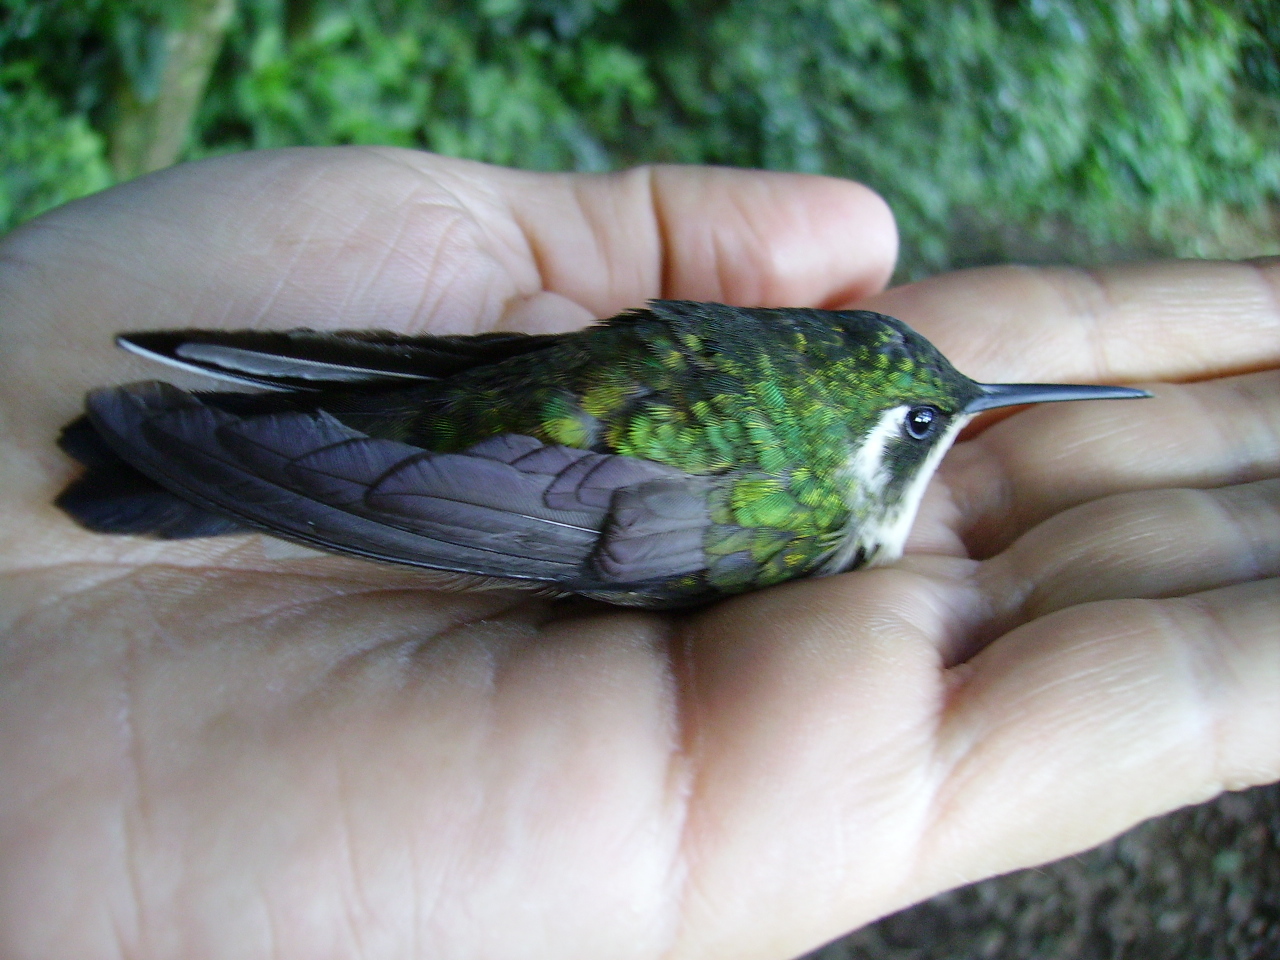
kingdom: Animalia
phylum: Chordata
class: Aves
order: Apodiformes
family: Trochilidae
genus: Lampornis
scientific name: Lampornis viridipallens
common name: Green-throated mountain-gem
